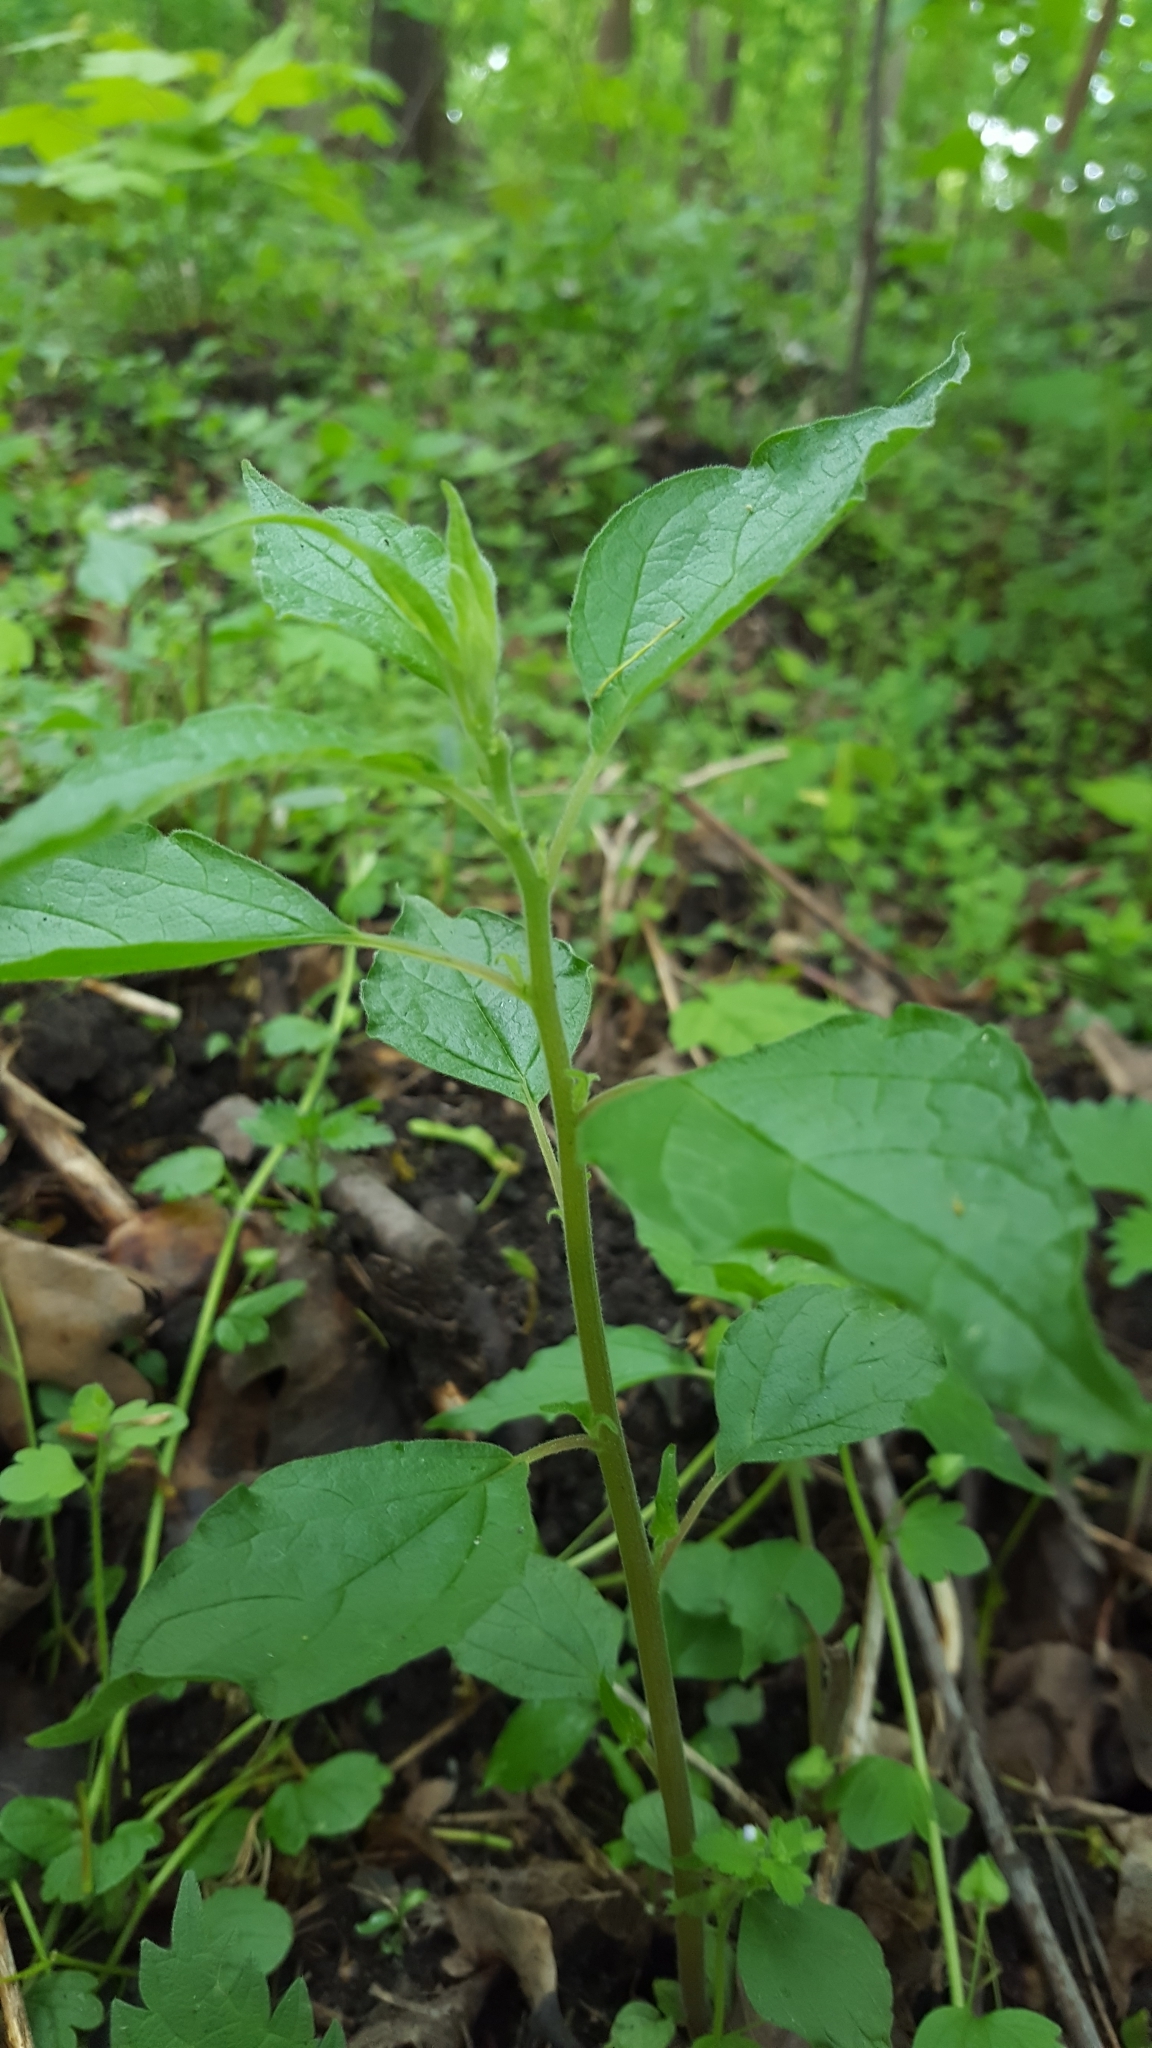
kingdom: Plantae
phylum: Tracheophyta
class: Magnoliopsida
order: Rosales
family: Urticaceae
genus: Parietaria
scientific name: Parietaria officinalis
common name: Eastern pellitory-of-the-wall
